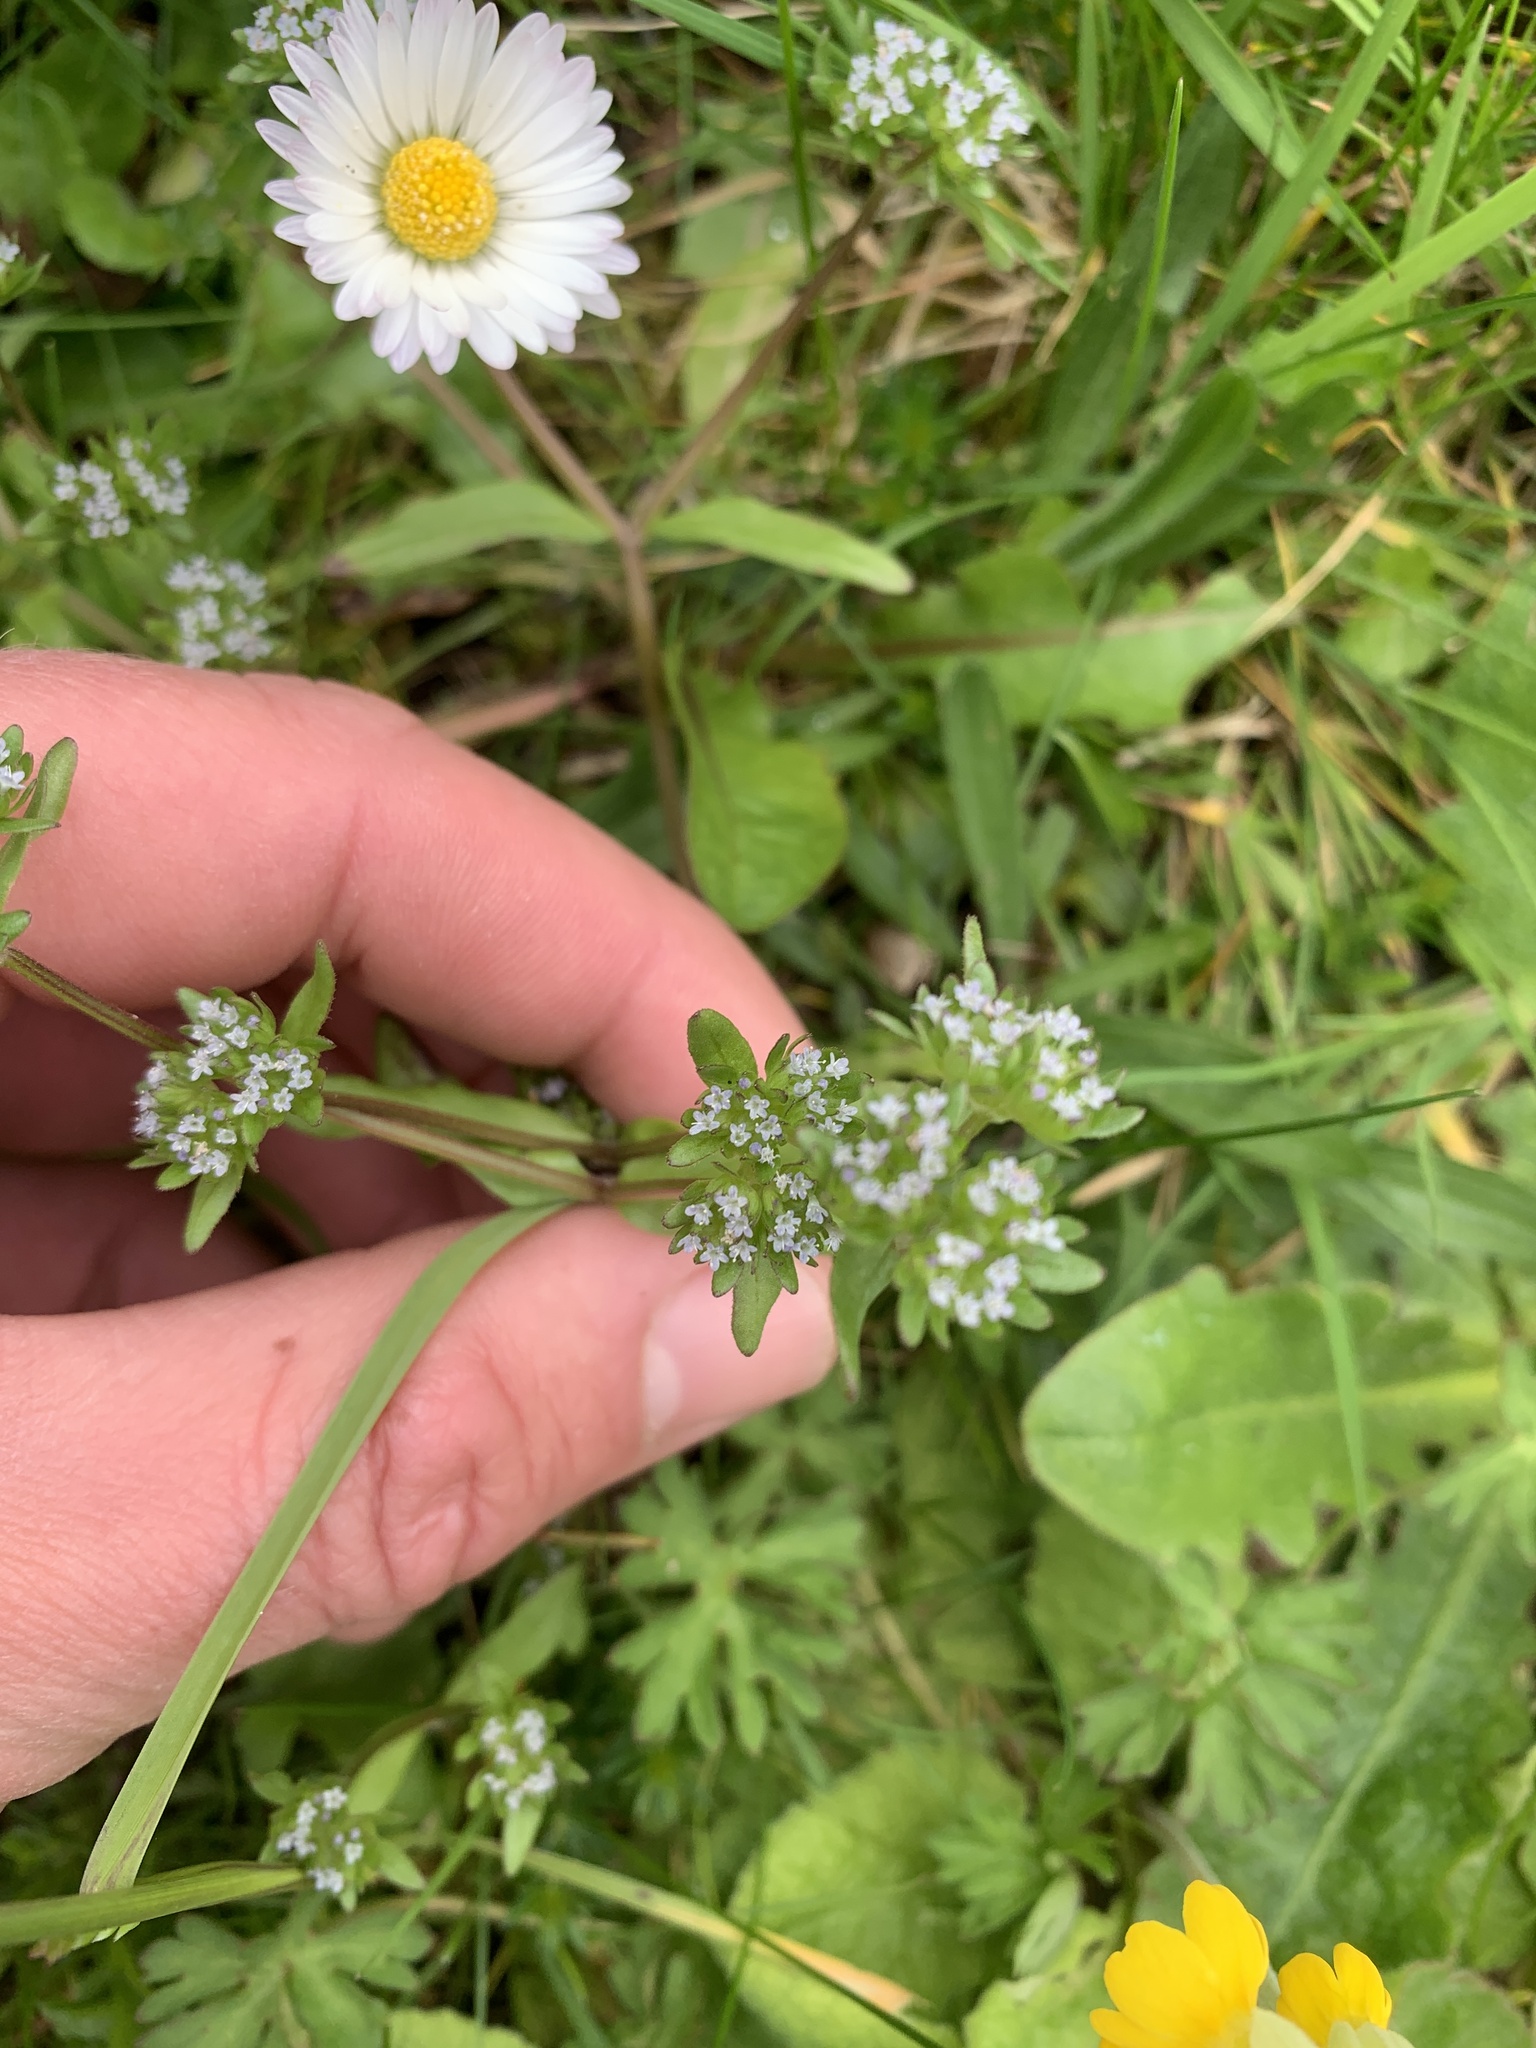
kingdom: Plantae
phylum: Tracheophyta
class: Magnoliopsida
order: Dipsacales
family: Caprifoliaceae
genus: Valerianella
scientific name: Valerianella locusta
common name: Common cornsalad
